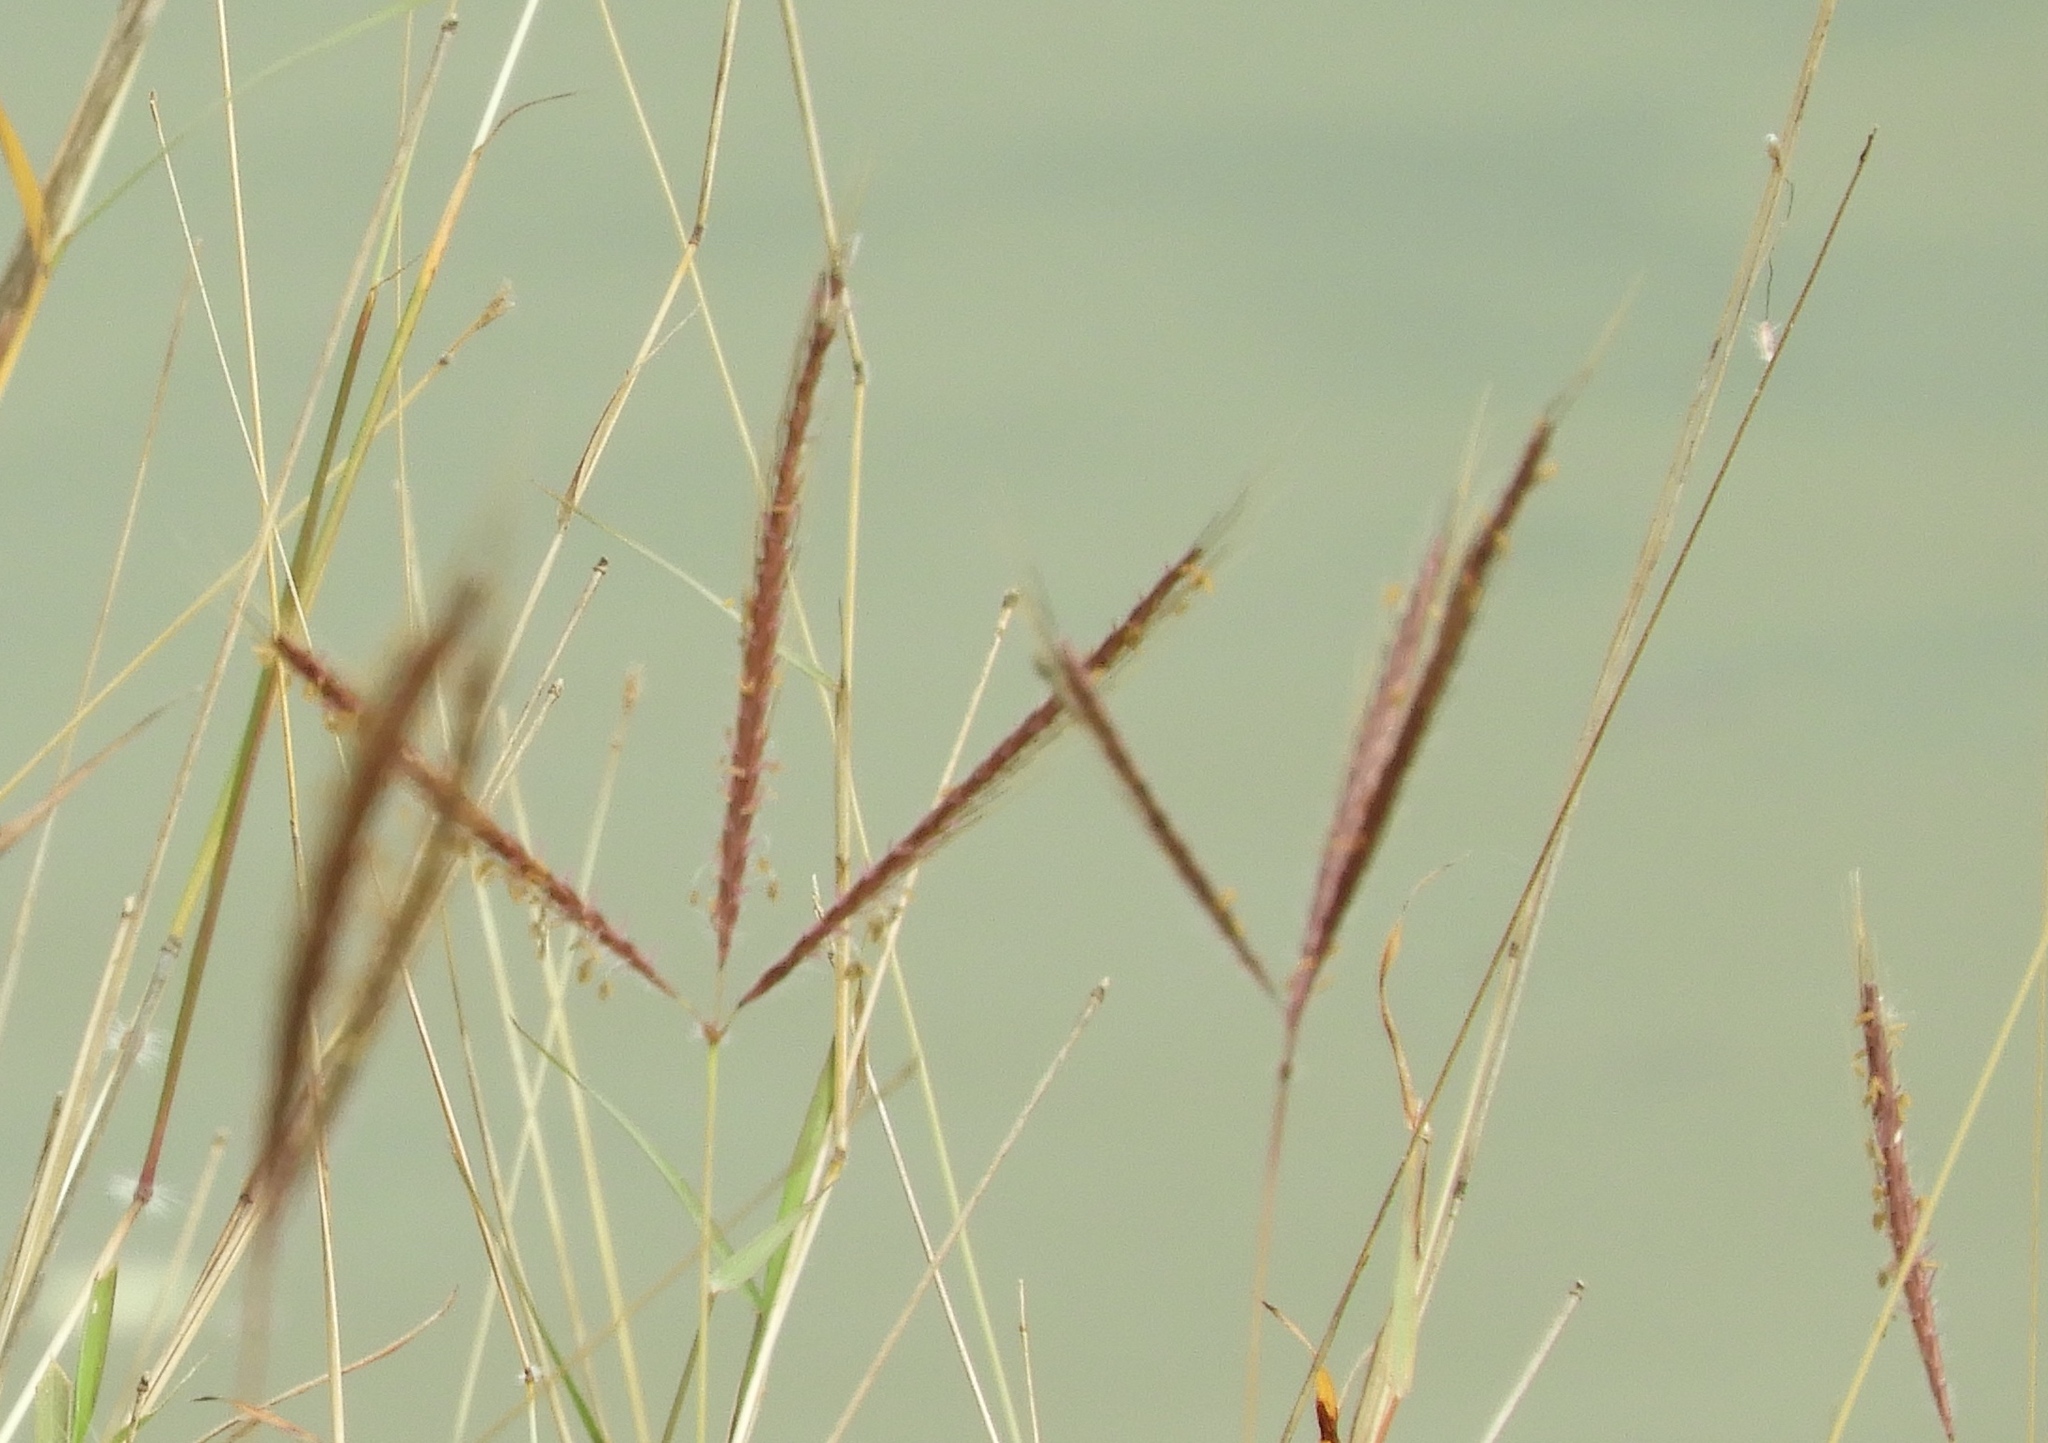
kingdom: Plantae
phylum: Tracheophyta
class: Liliopsida
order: Poales
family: Poaceae
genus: Andropogon
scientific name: Andropogon
